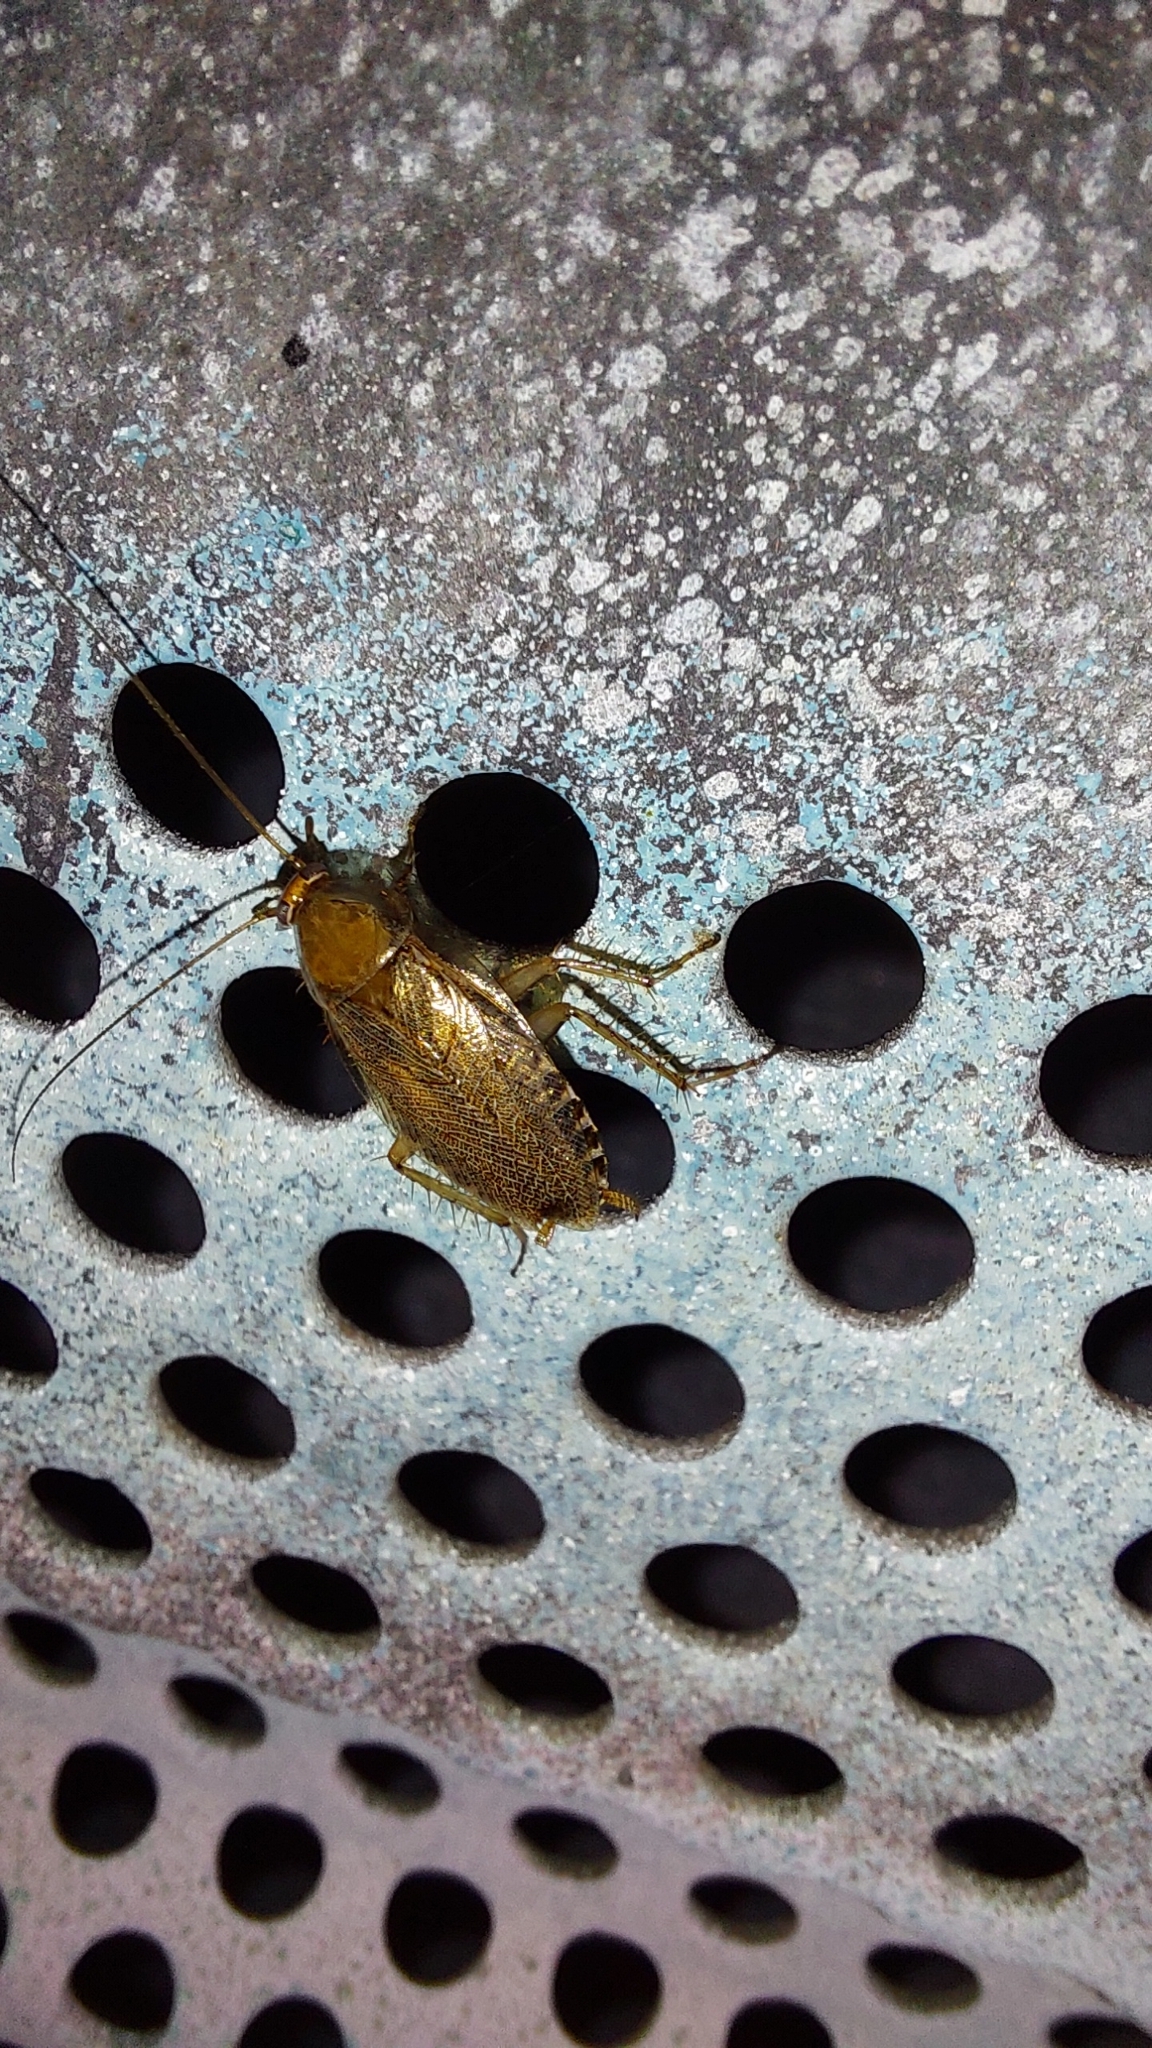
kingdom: Animalia
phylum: Arthropoda
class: Insecta
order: Blattodea
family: Ectobiidae
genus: Ectobius
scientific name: Ectobius vittiventris
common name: Garden cockroach
